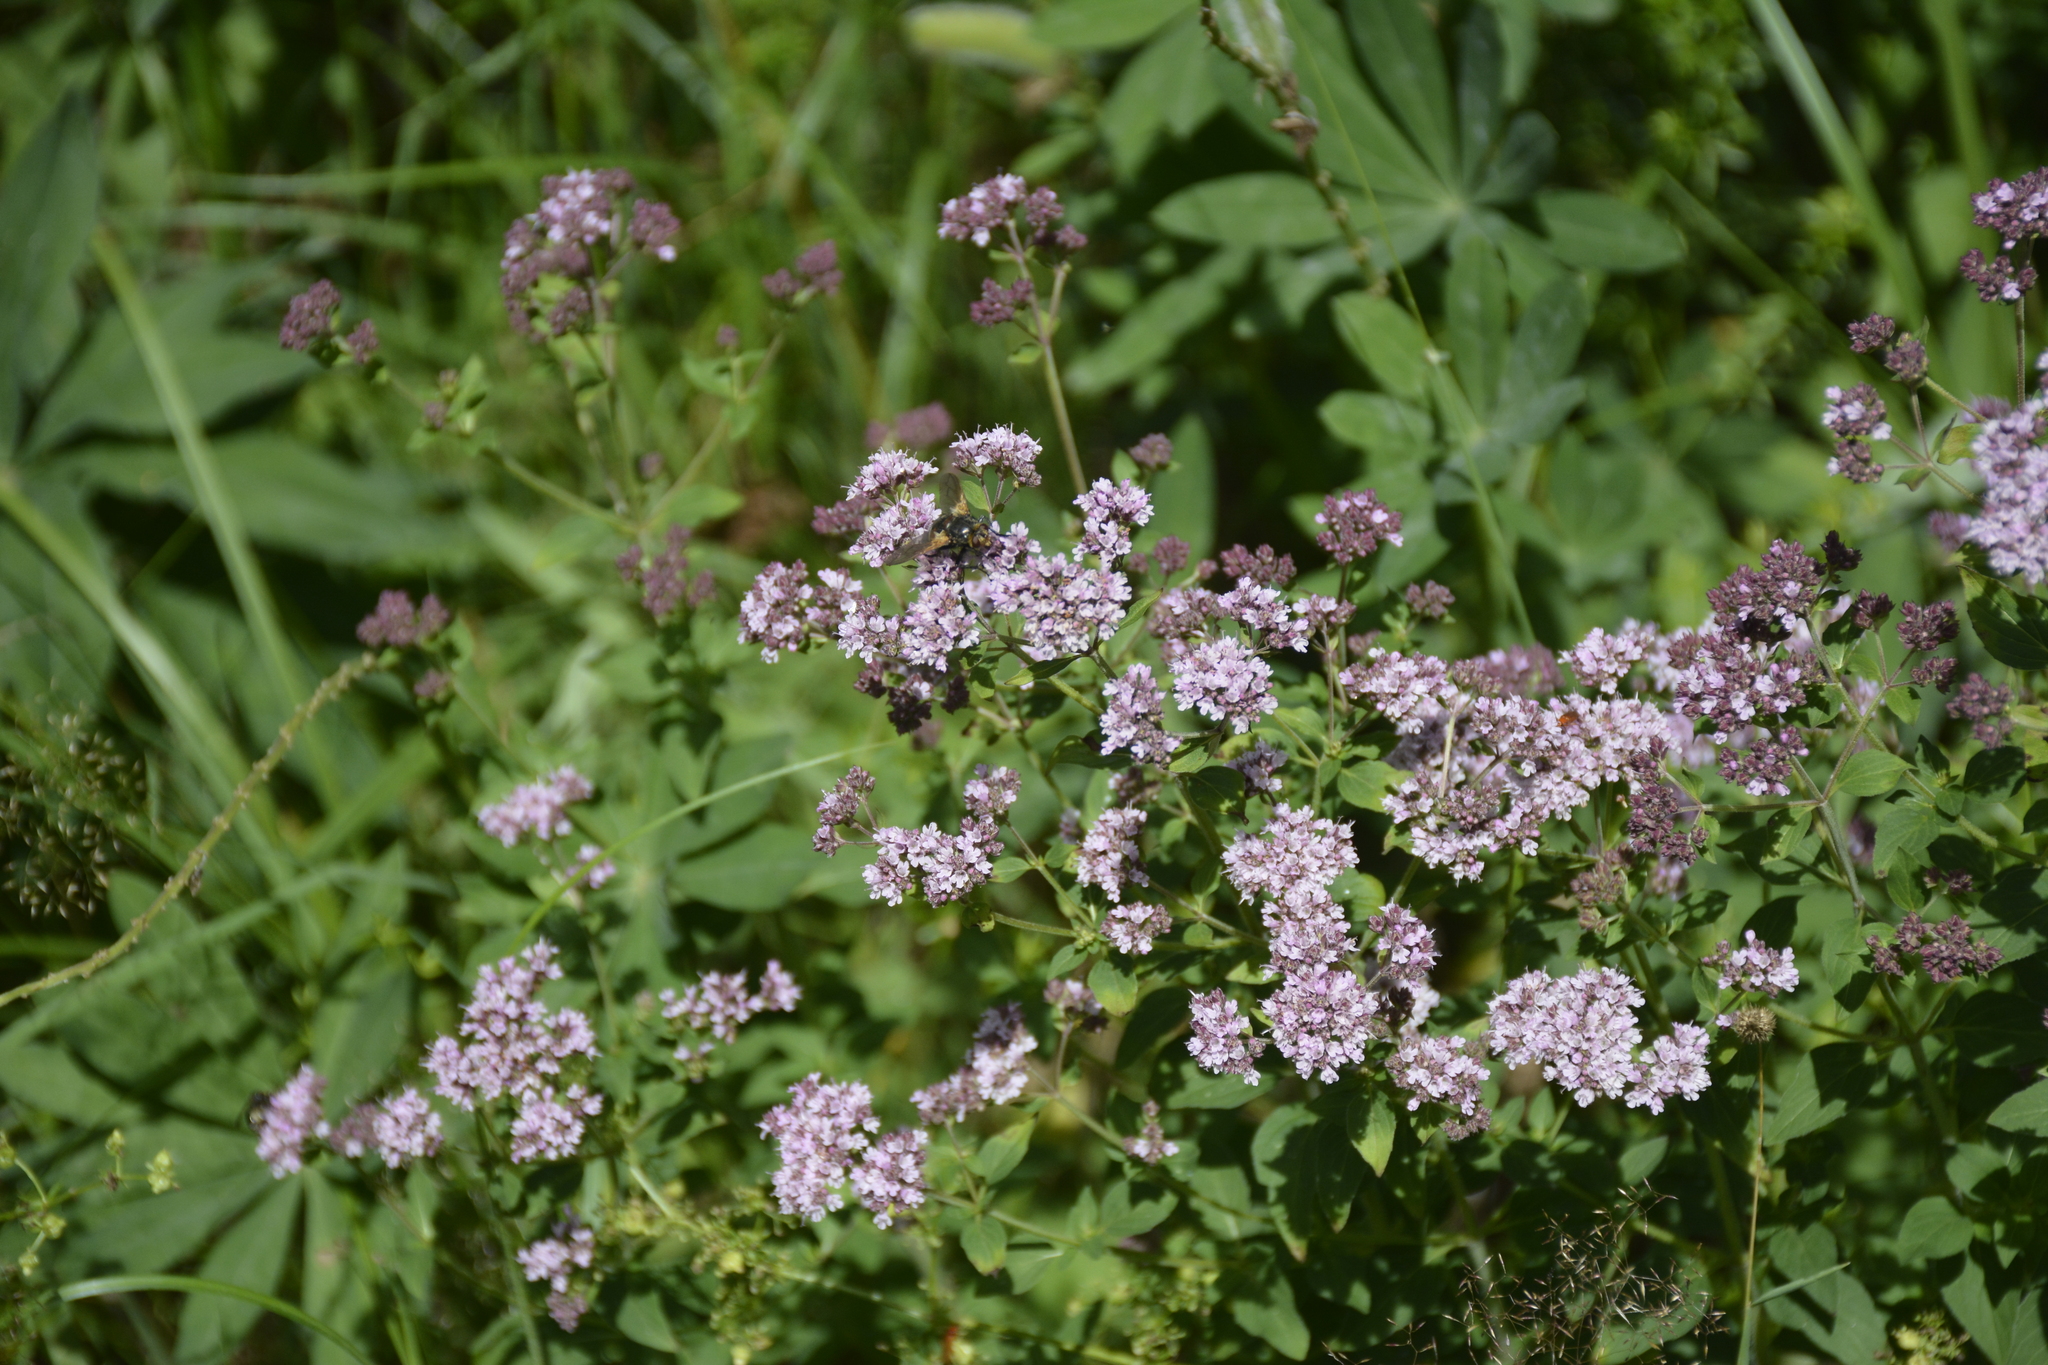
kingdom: Plantae
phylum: Tracheophyta
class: Magnoliopsida
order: Lamiales
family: Lamiaceae
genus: Origanum
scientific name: Origanum vulgare
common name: Wild marjoram
